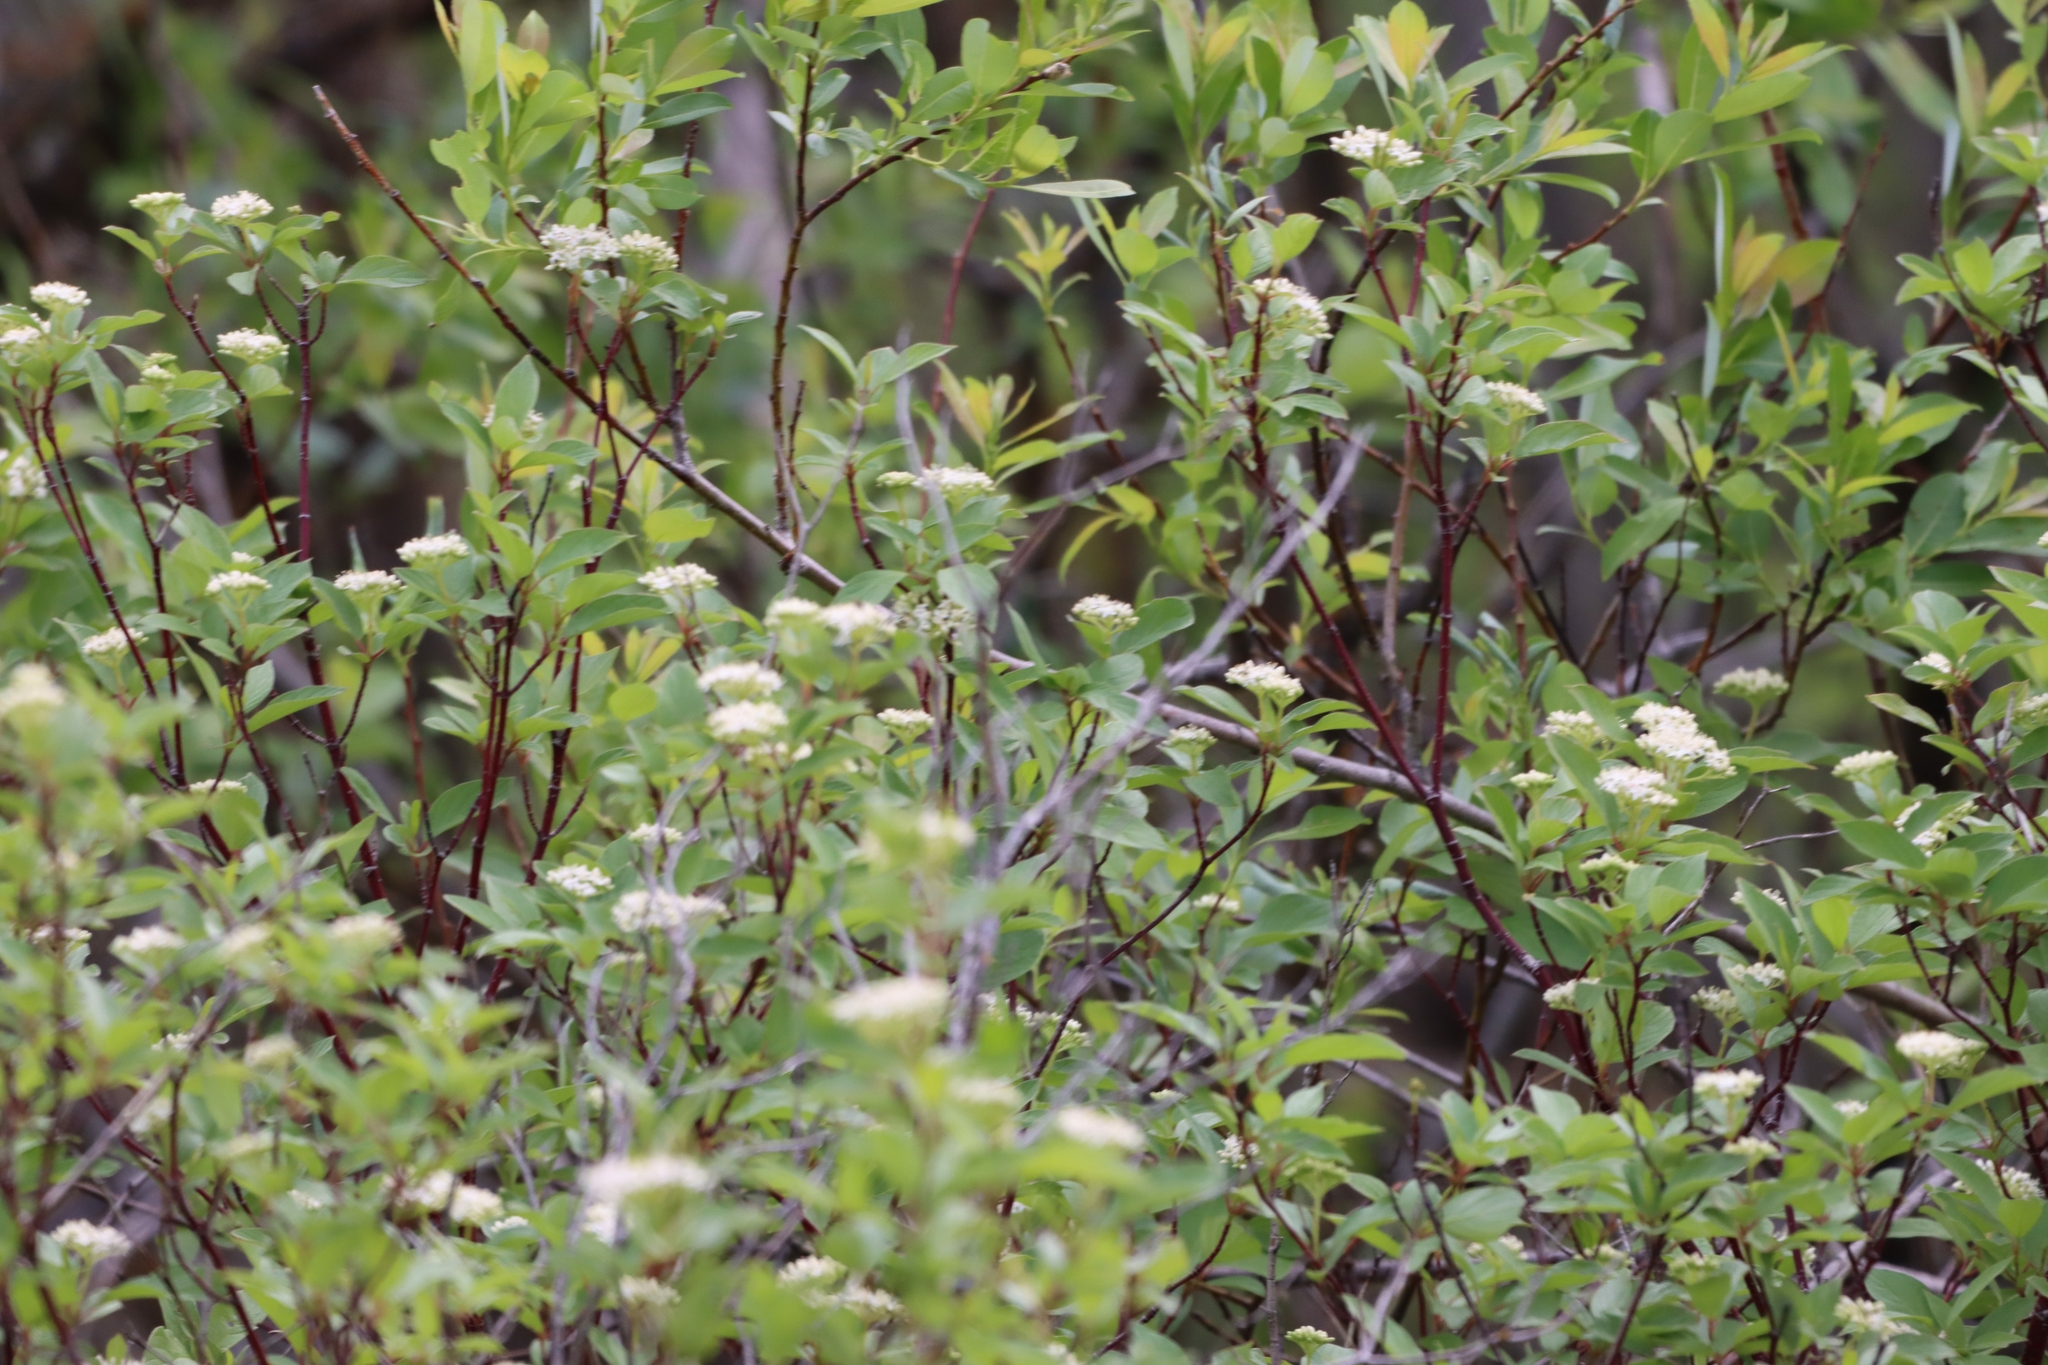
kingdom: Plantae
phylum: Tracheophyta
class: Magnoliopsida
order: Cornales
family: Cornaceae
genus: Cornus
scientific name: Cornus sericea
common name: Red-osier dogwood
